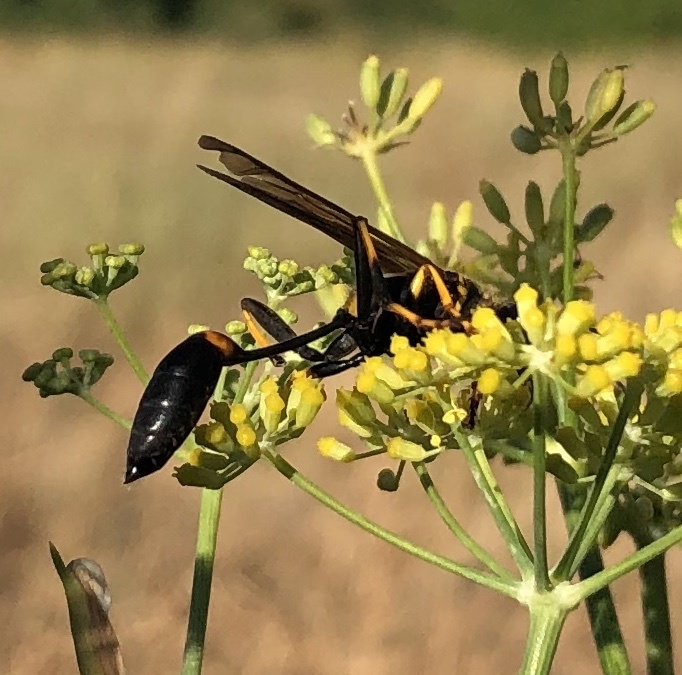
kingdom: Animalia
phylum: Arthropoda
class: Insecta
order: Hymenoptera
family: Sphecidae
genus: Sceliphron
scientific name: Sceliphron caementarium
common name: Mud dauber
